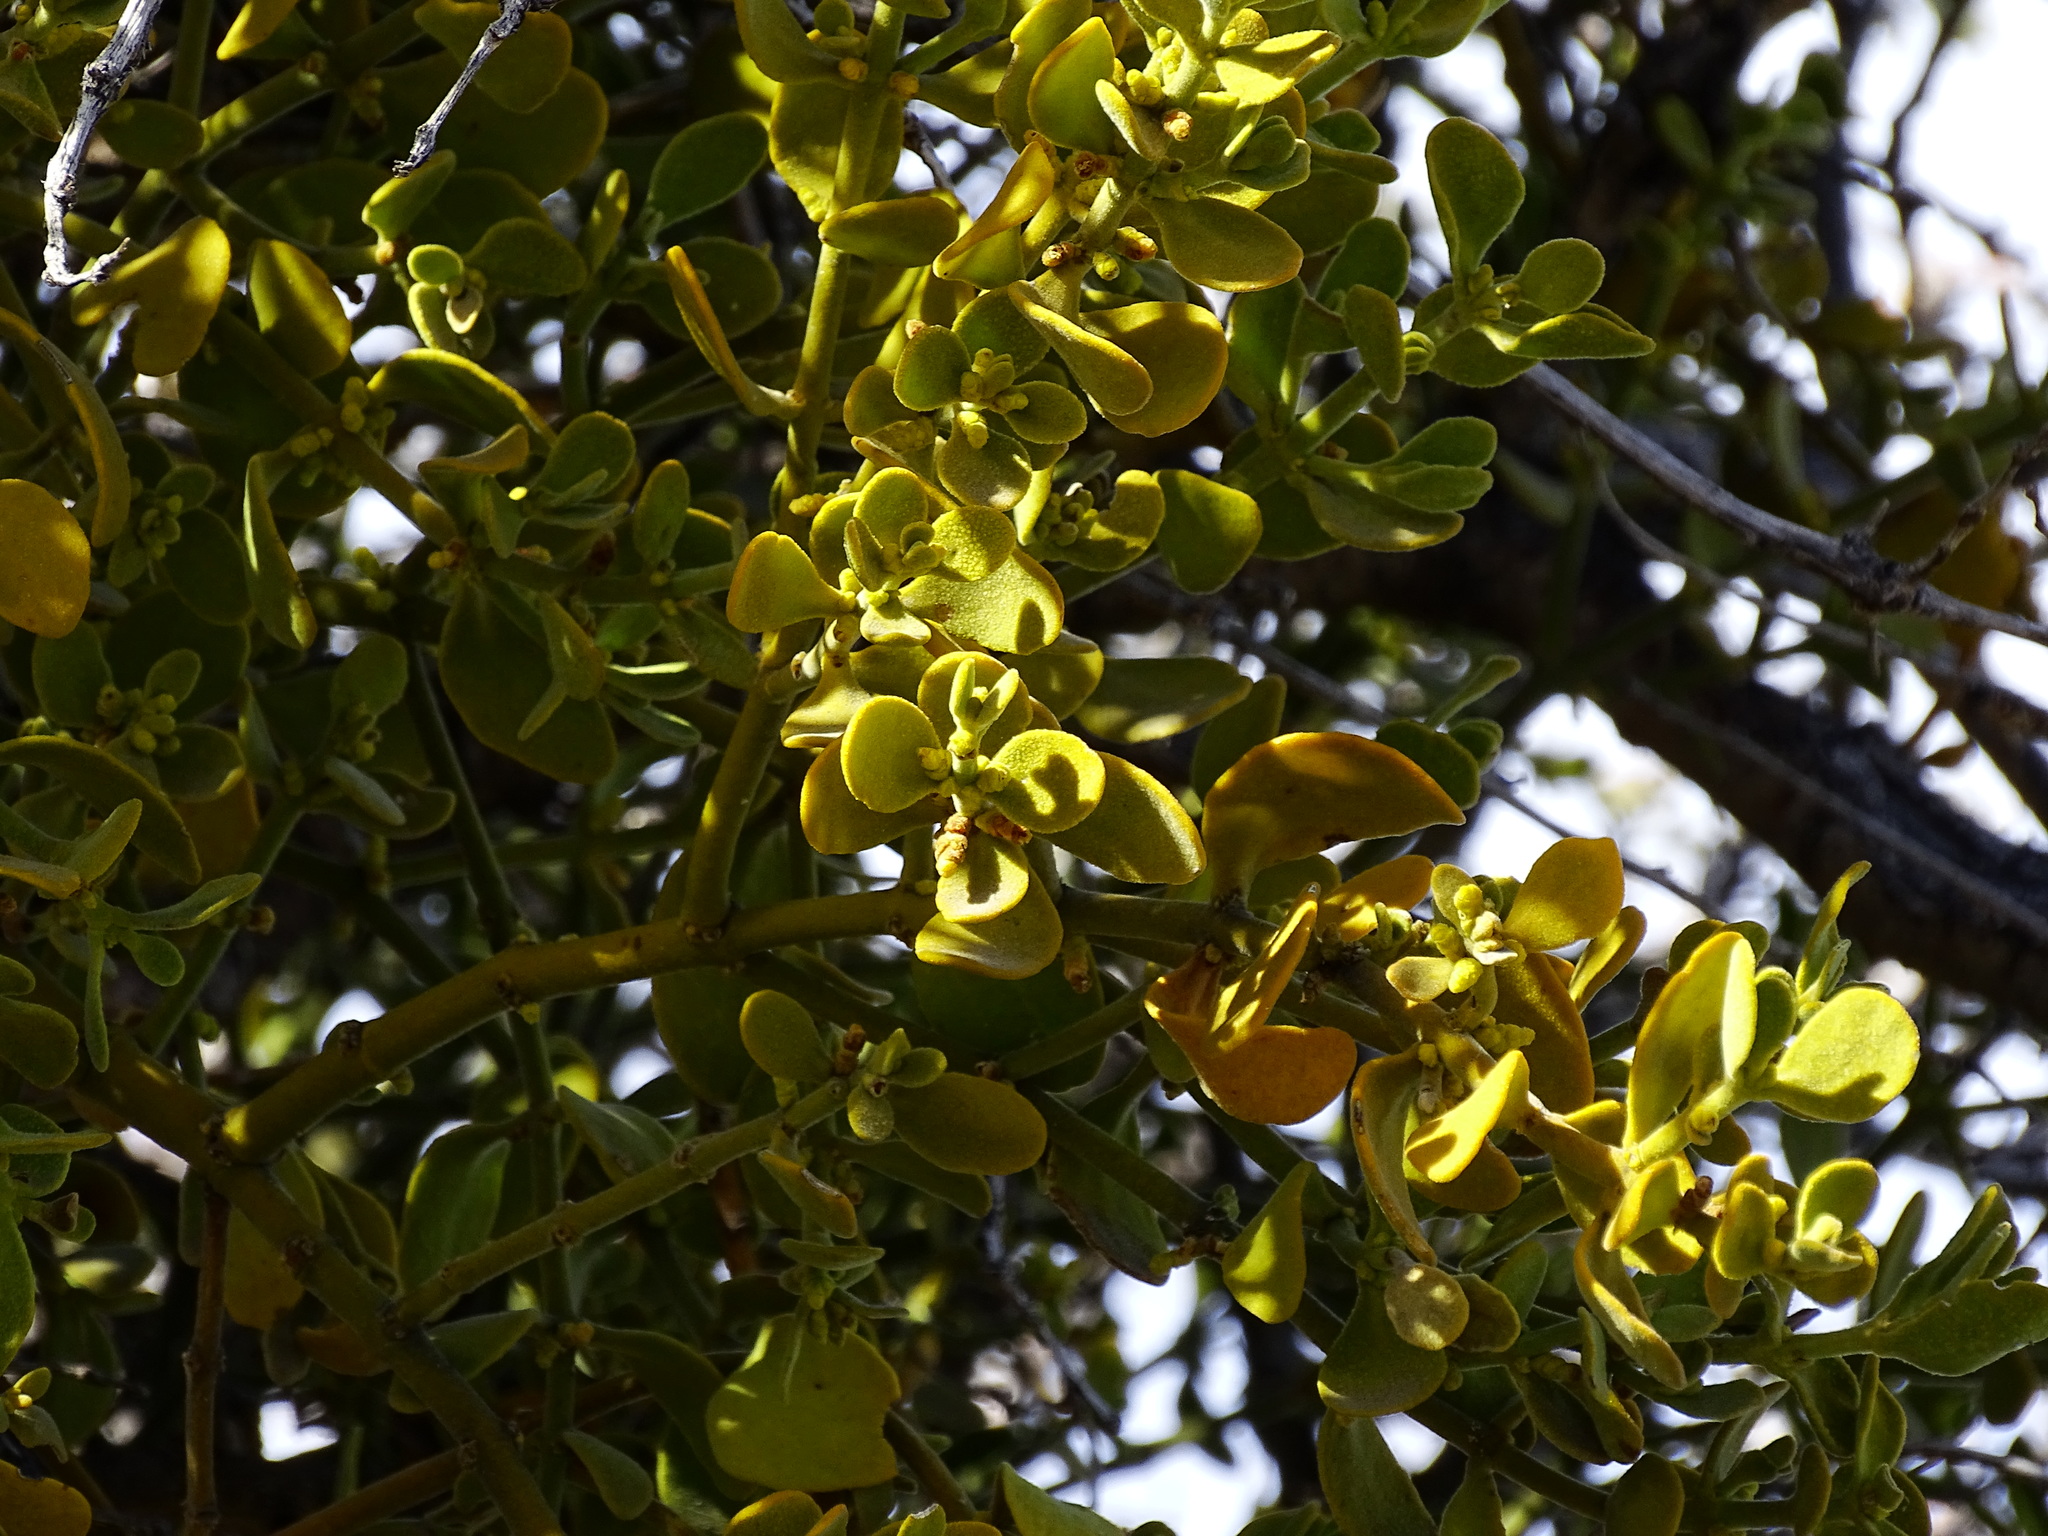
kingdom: Plantae
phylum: Tracheophyta
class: Magnoliopsida
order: Santalales
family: Viscaceae
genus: Phoradendron
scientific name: Phoradendron leucarpum
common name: Pacific mistletoe
